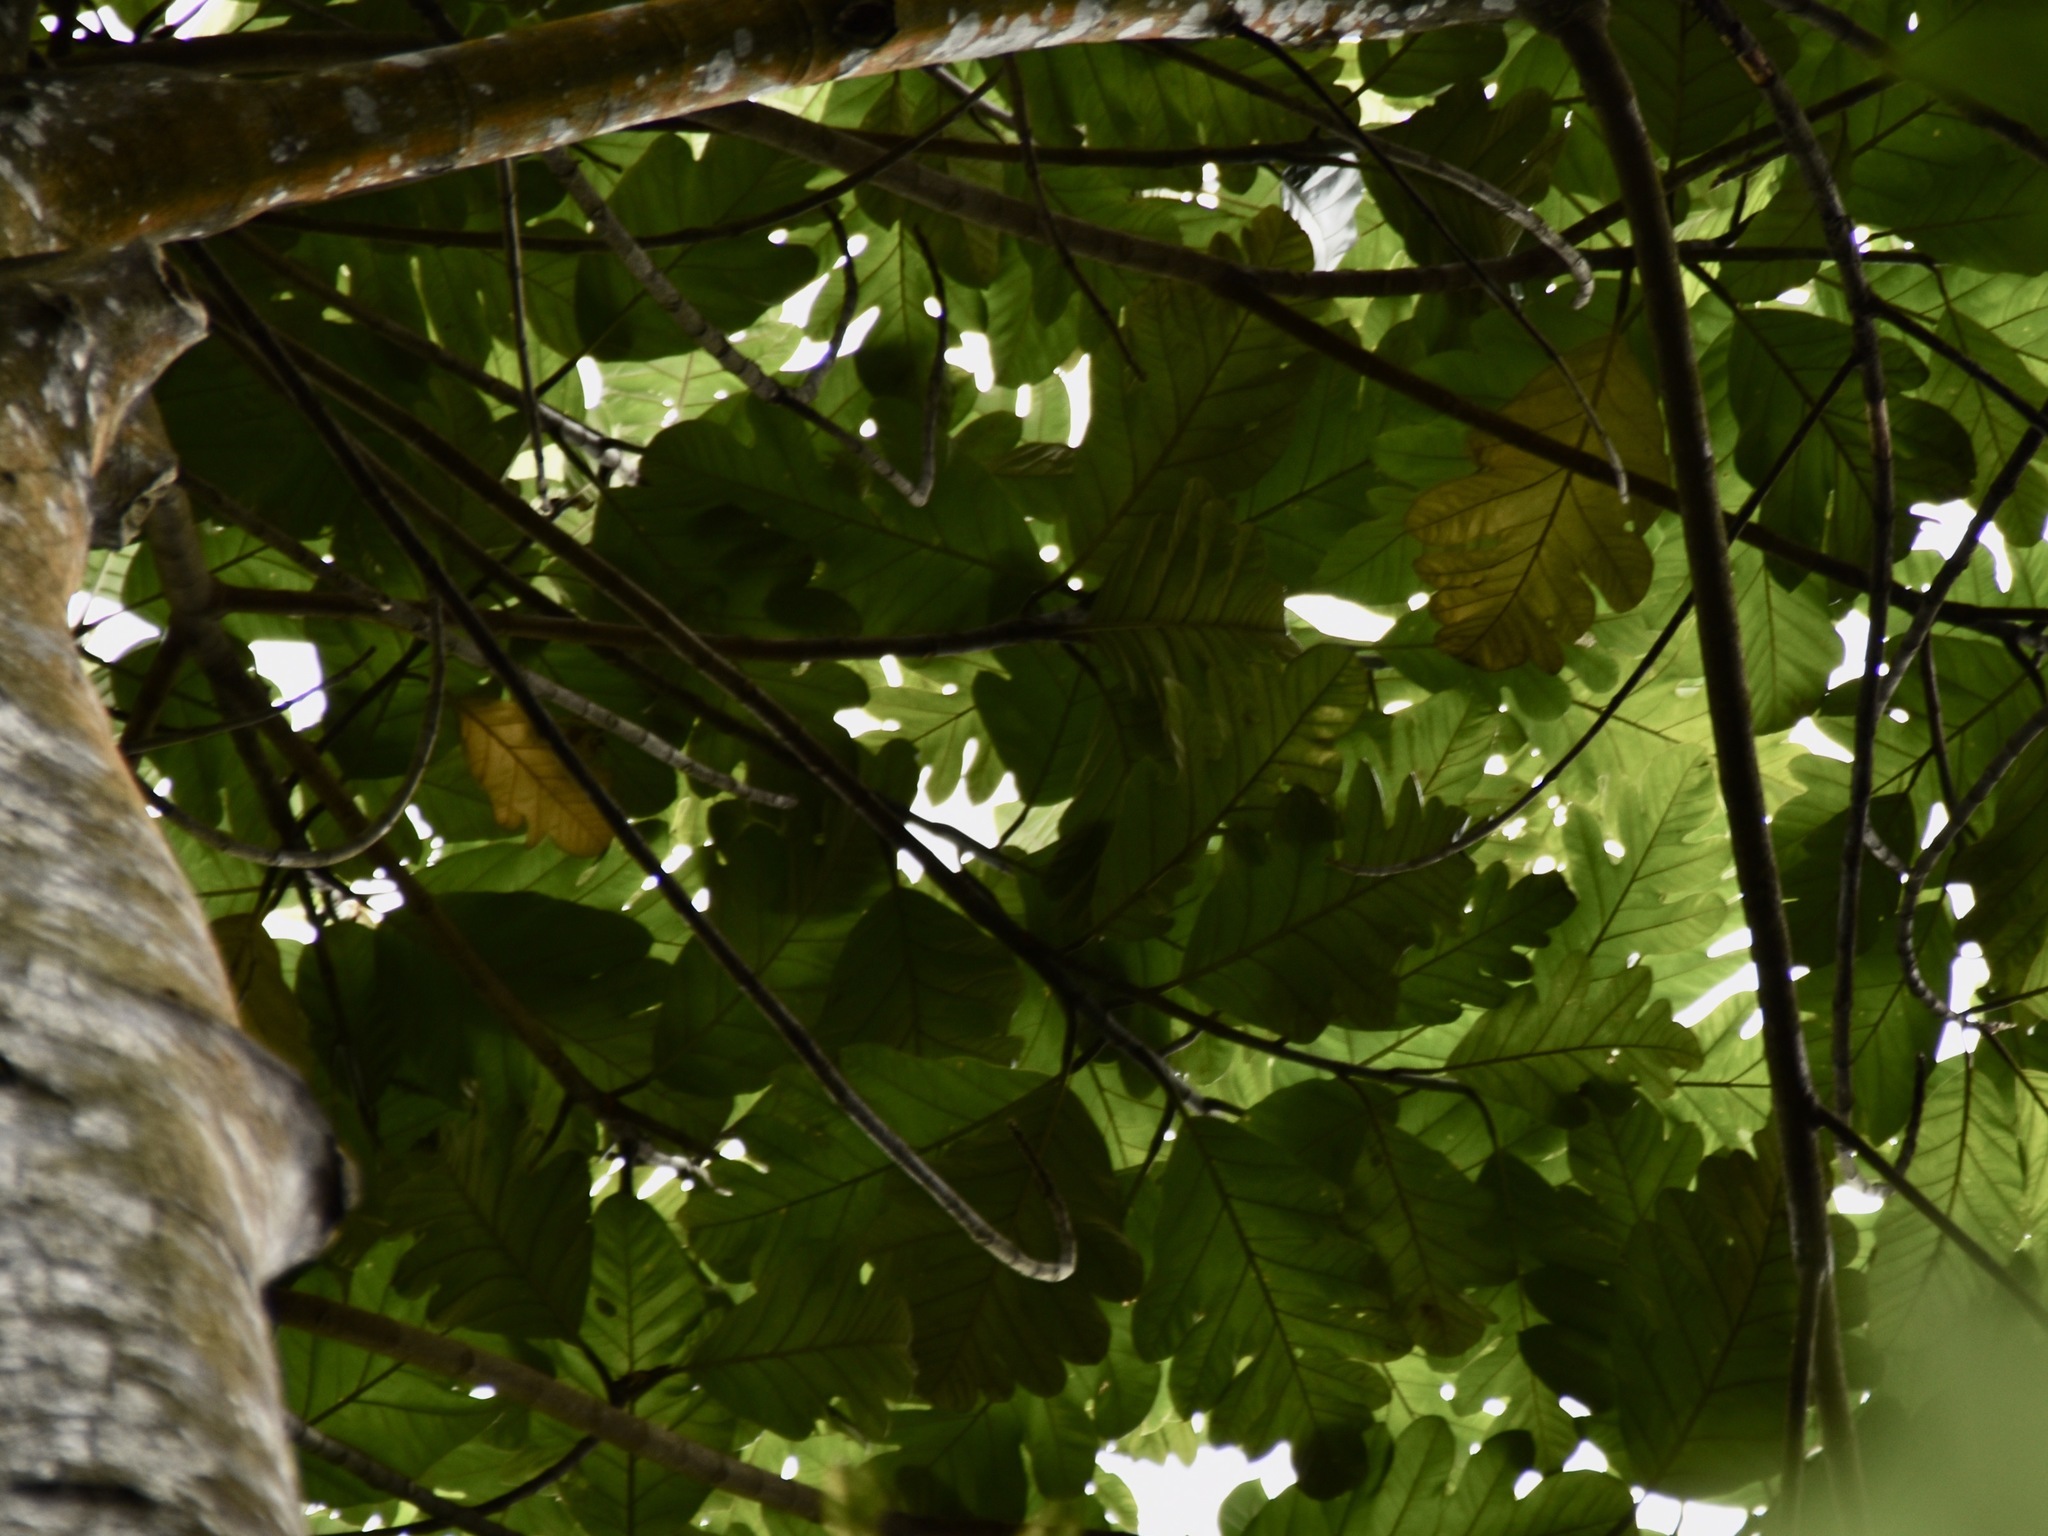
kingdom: Plantae
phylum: Tracheophyta
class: Magnoliopsida
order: Rosales
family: Moraceae
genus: Artocarpus
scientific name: Artocarpus elasticus
